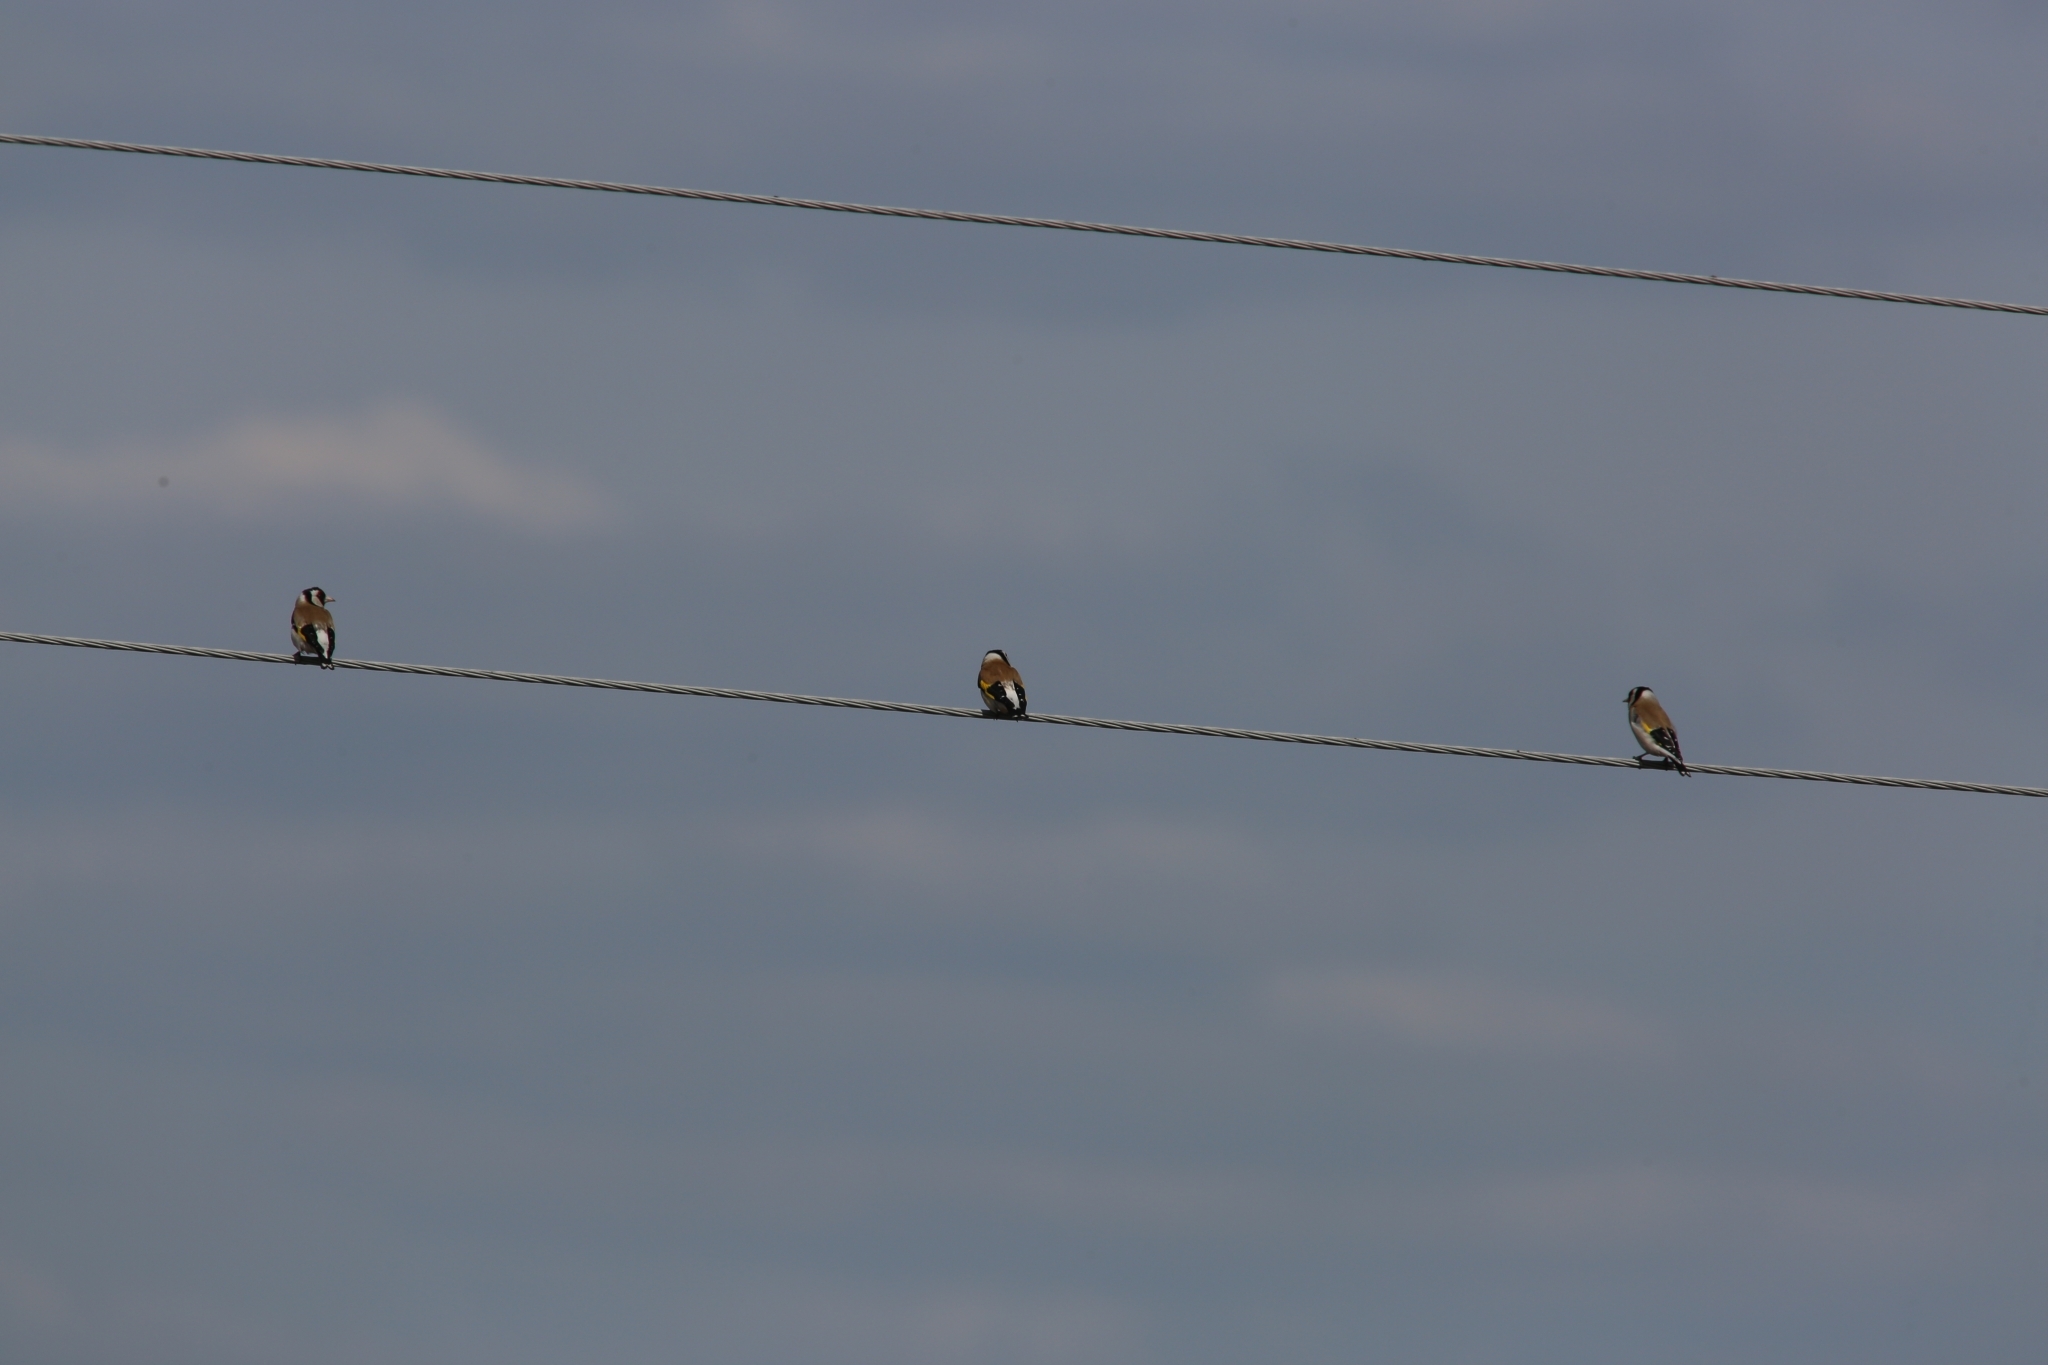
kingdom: Animalia
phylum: Chordata
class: Aves
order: Passeriformes
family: Fringillidae
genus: Carduelis
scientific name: Carduelis carduelis
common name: European goldfinch
